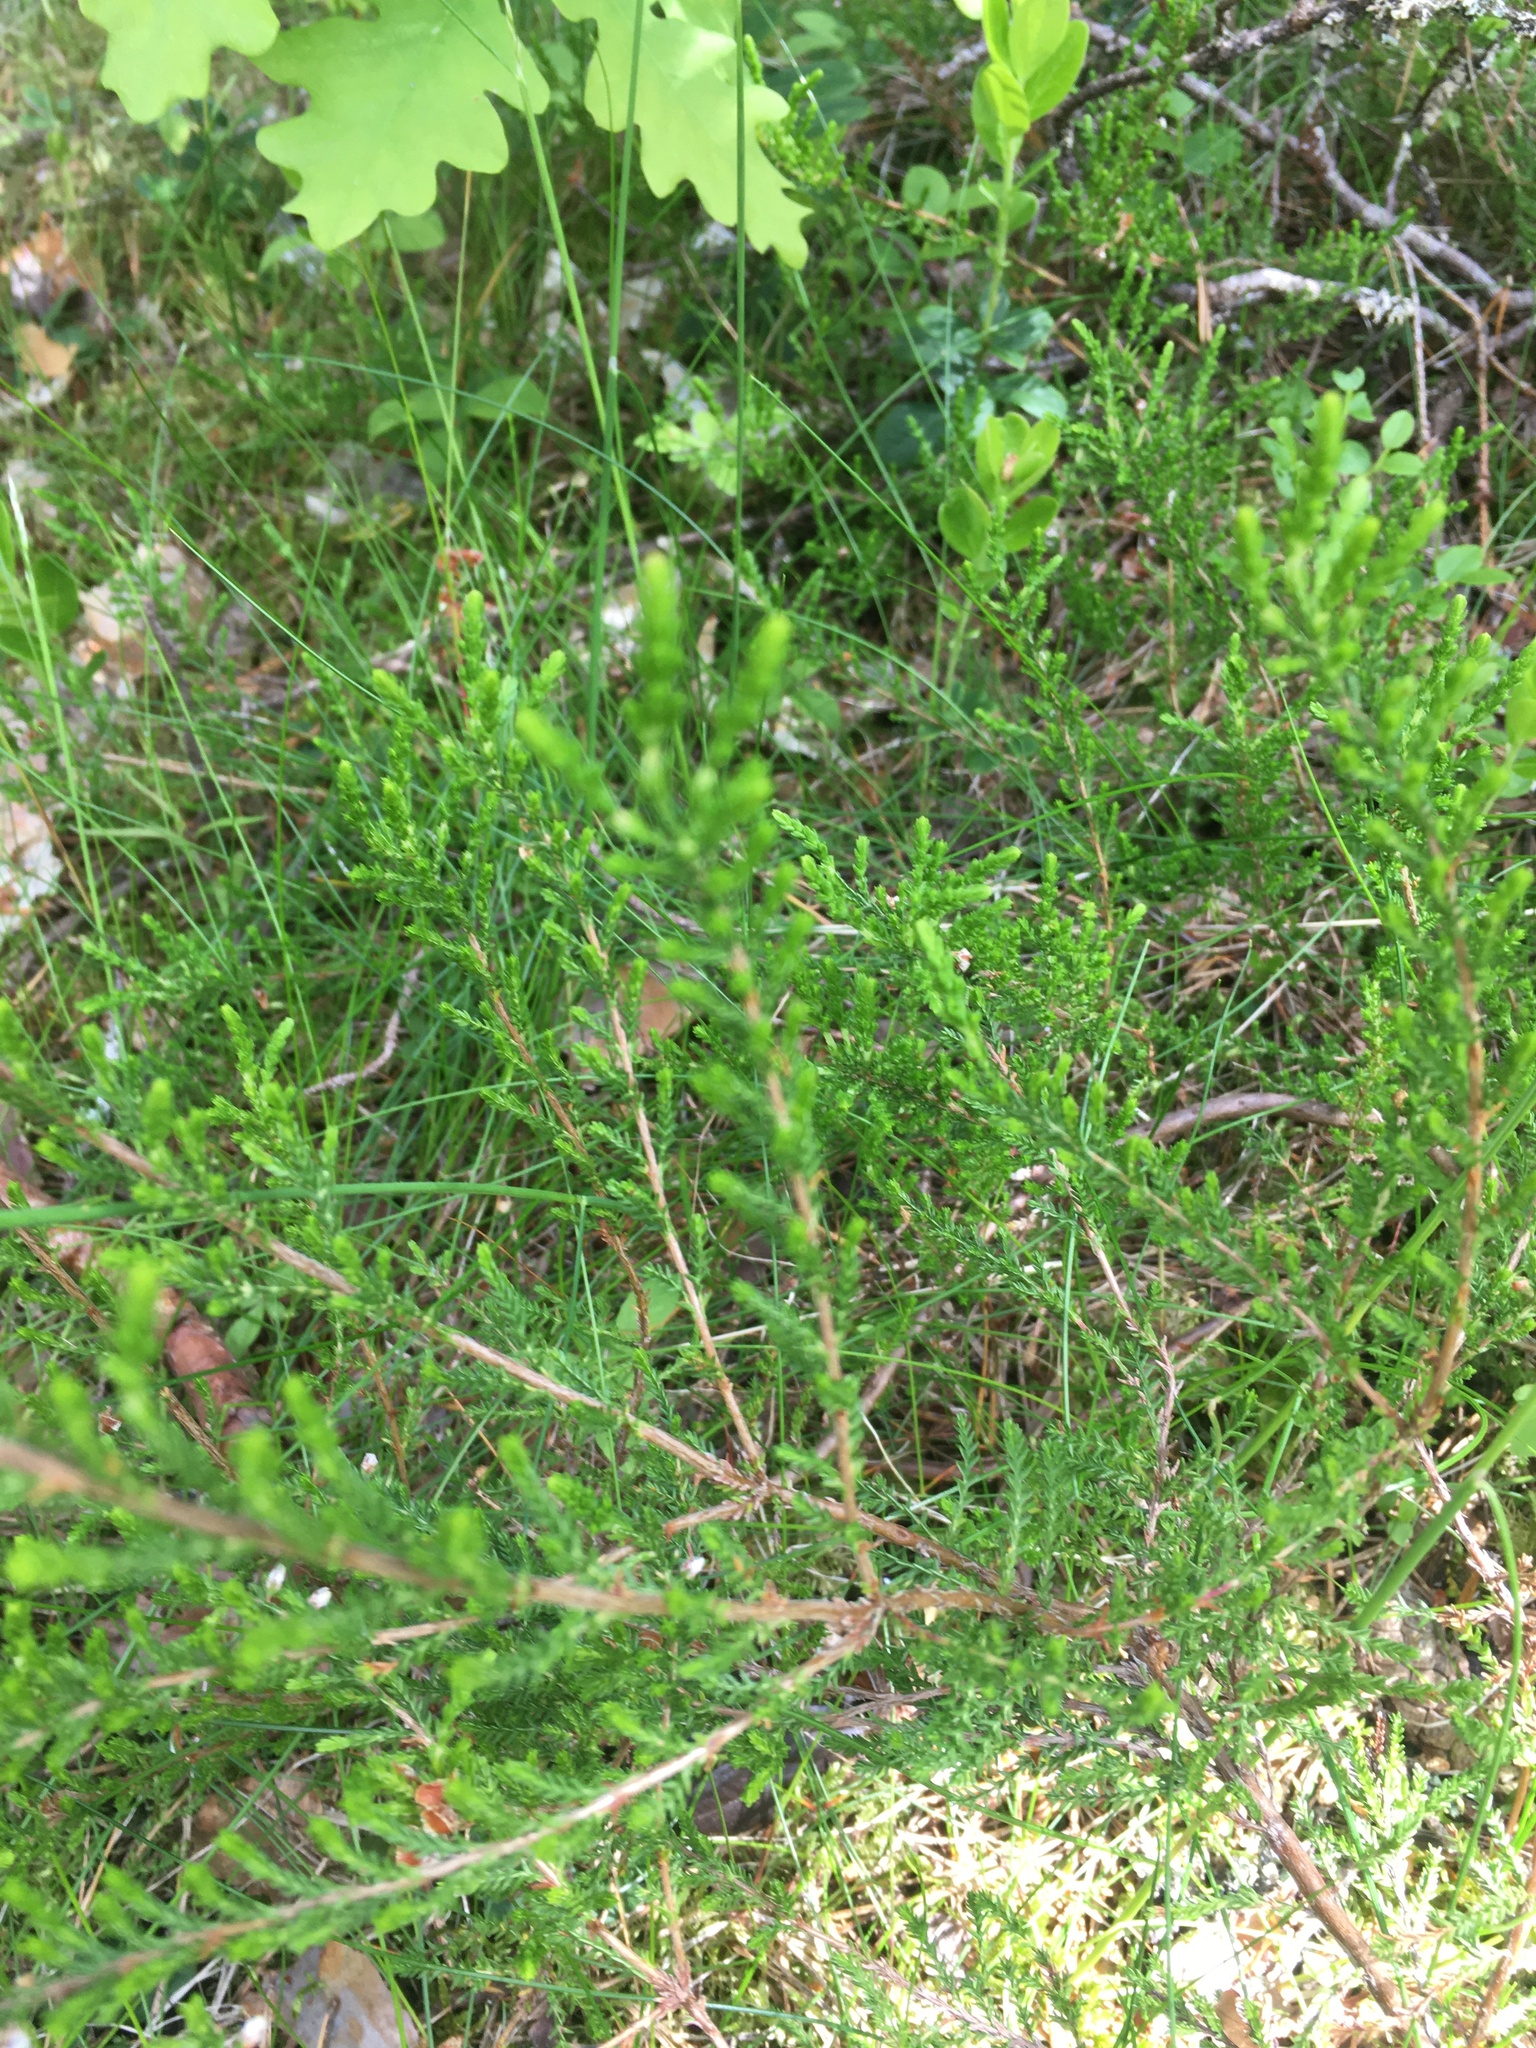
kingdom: Plantae
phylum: Tracheophyta
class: Magnoliopsida
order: Ericales
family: Ericaceae
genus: Calluna
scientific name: Calluna vulgaris
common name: Heather
